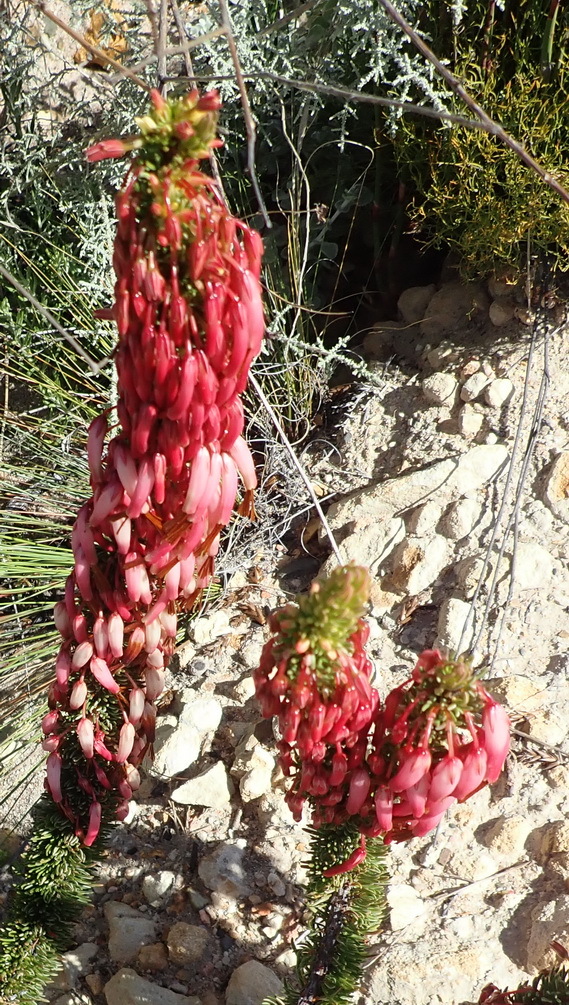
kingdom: Plantae
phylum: Tracheophyta
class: Magnoliopsida
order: Ericales
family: Ericaceae
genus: Erica
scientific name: Erica plukenetii
